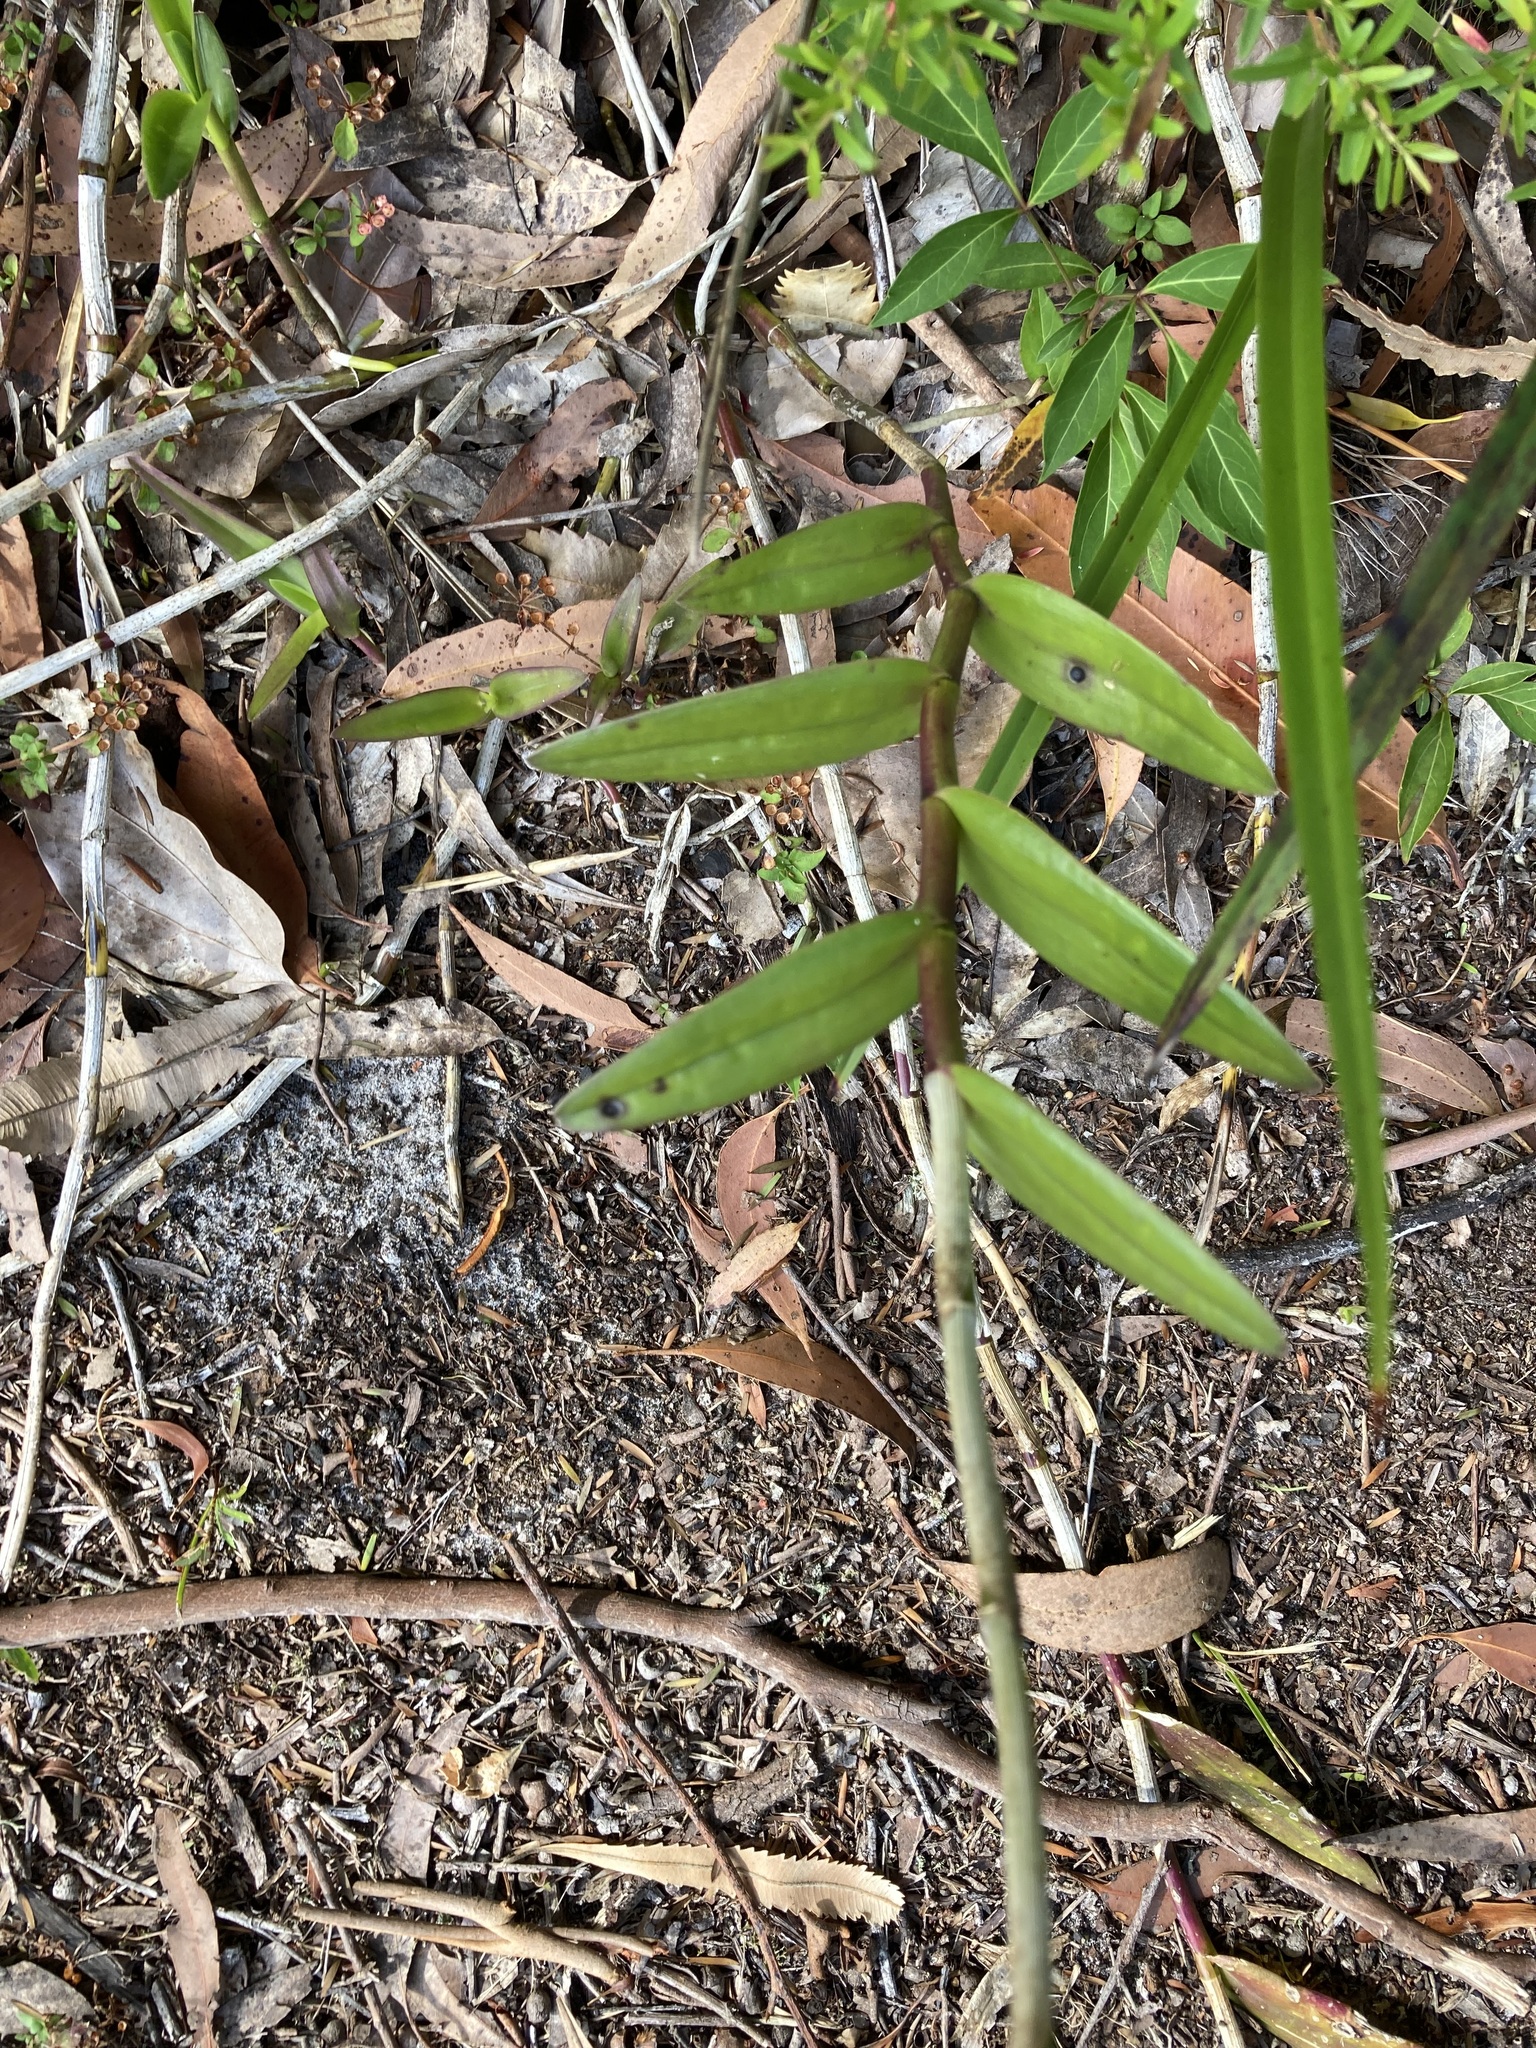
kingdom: Plantae
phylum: Tracheophyta
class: Liliopsida
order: Asparagales
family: Orchidaceae
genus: Epidendrum
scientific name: Epidendrum
